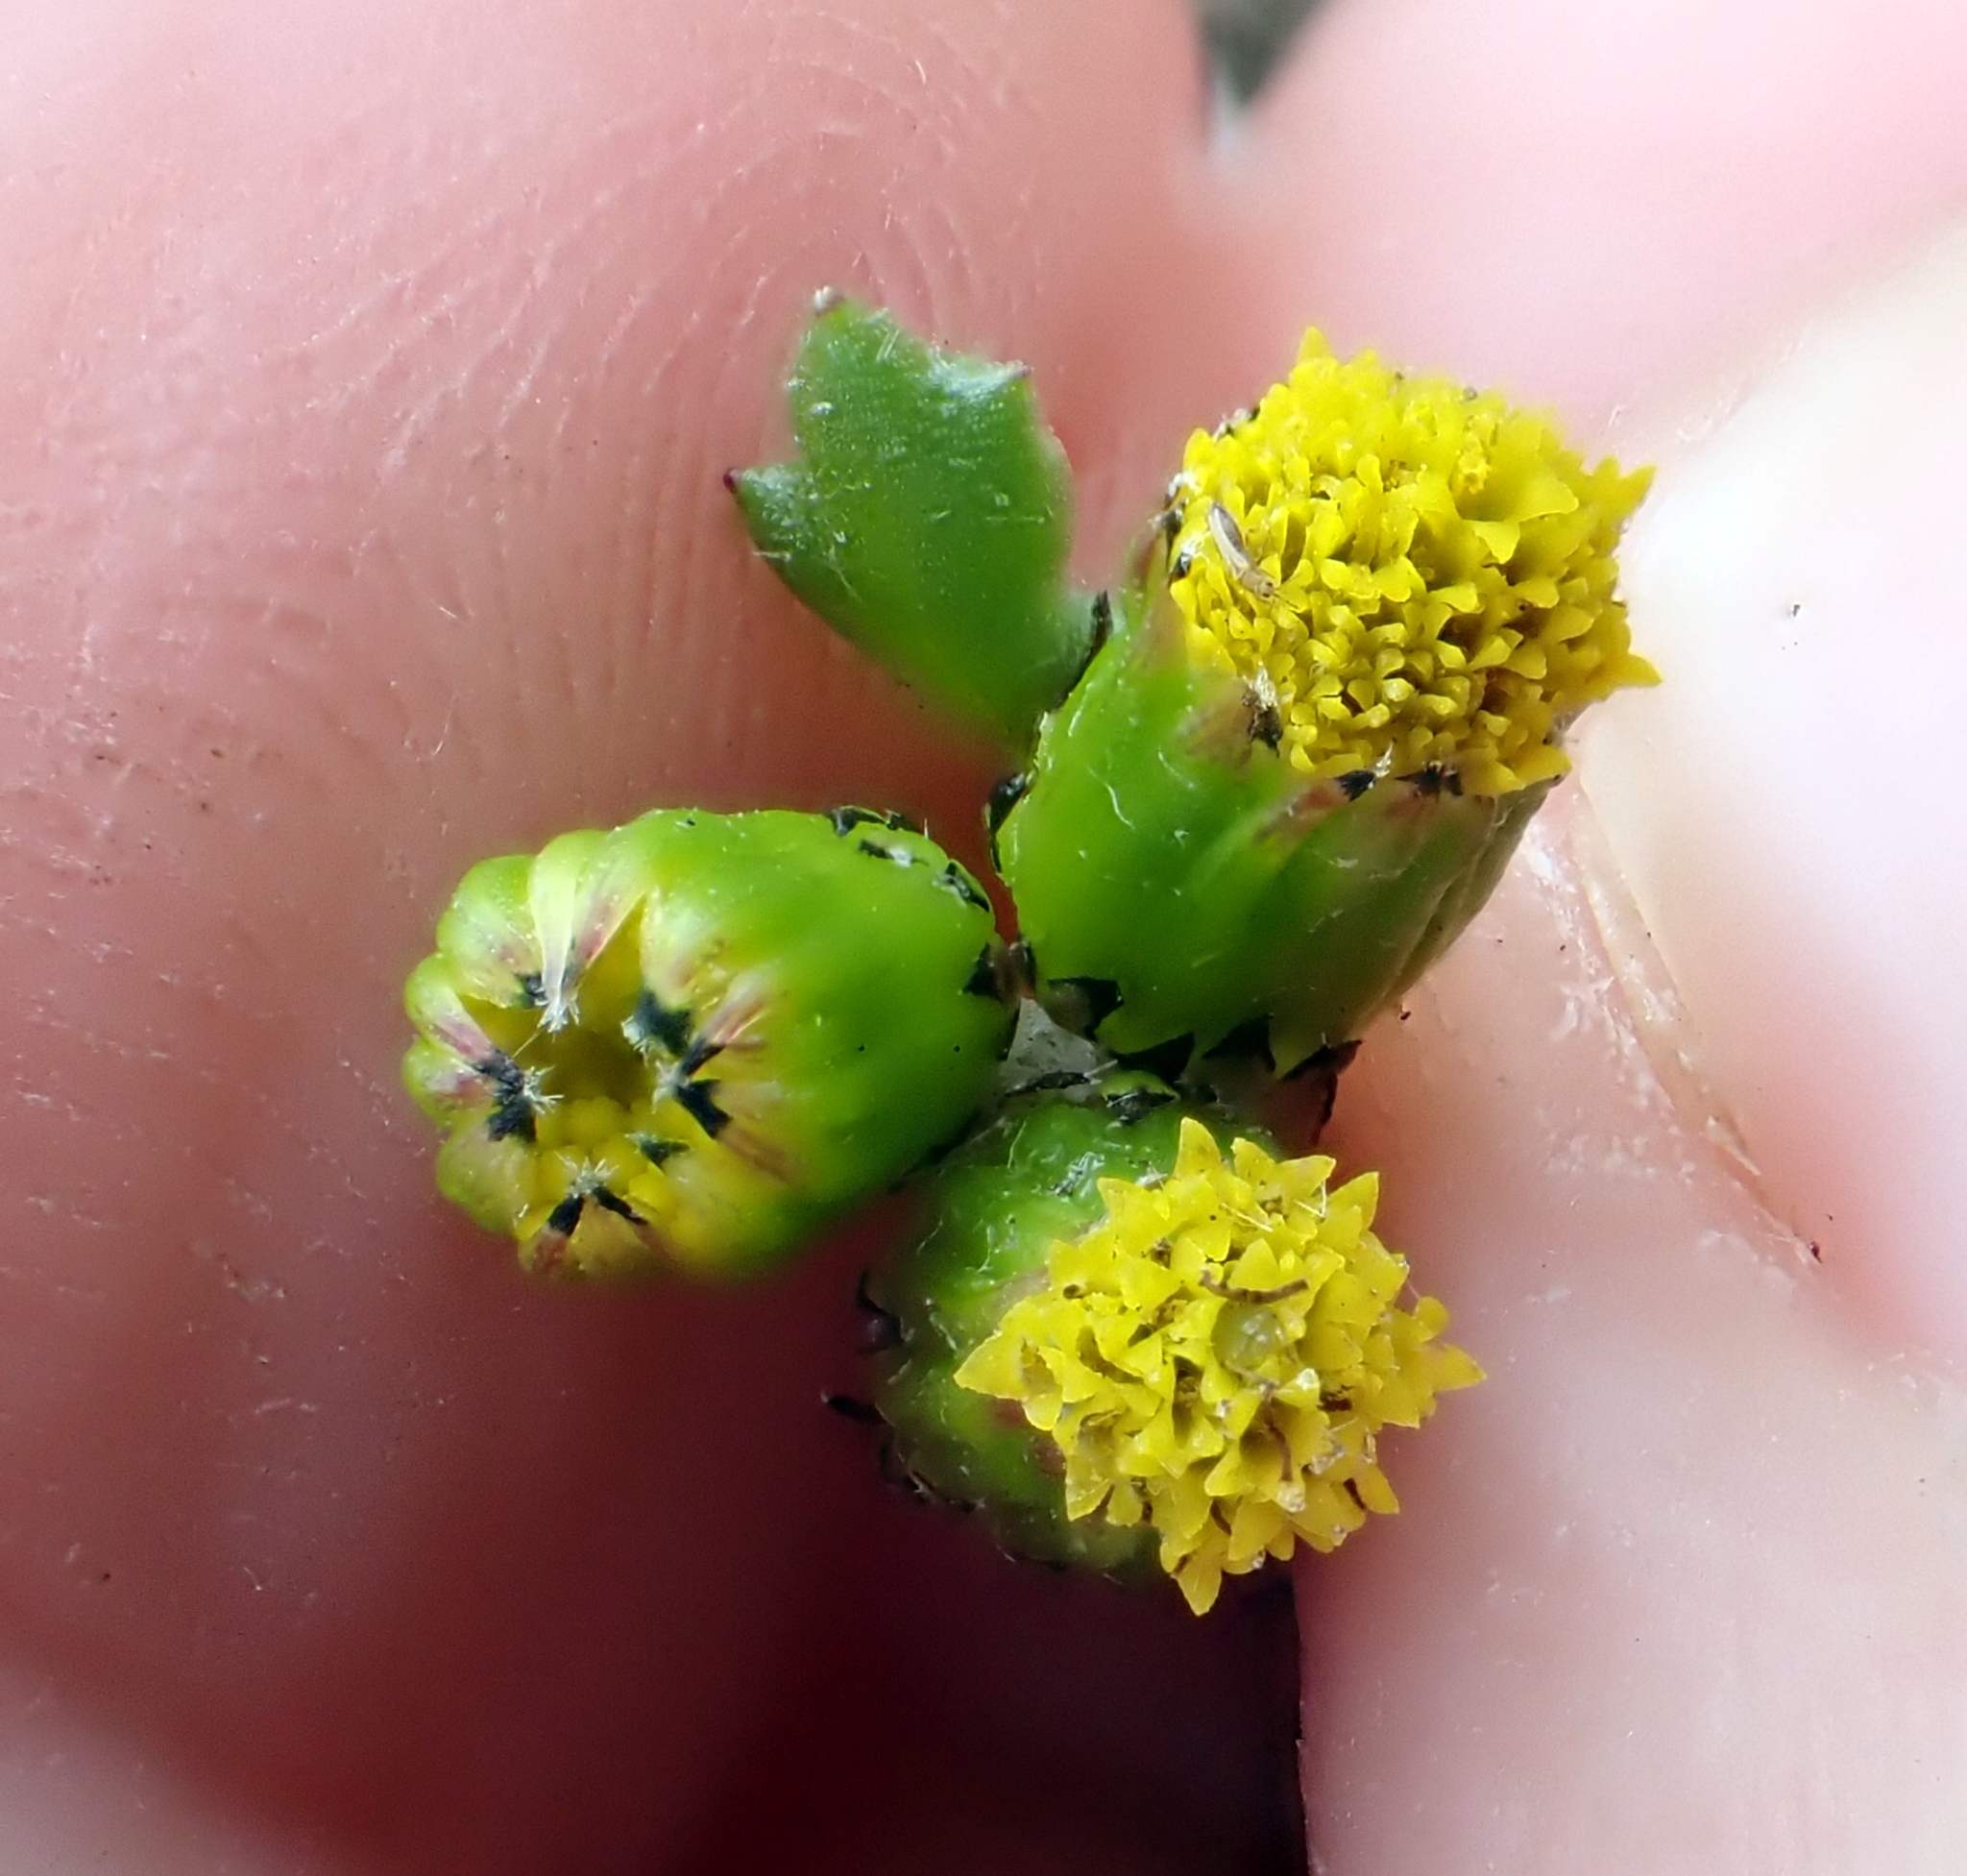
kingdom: Plantae
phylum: Tracheophyta
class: Magnoliopsida
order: Asterales
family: Asteraceae
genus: Senecio
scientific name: Senecio vulgaris
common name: Old-man-in-the-spring
